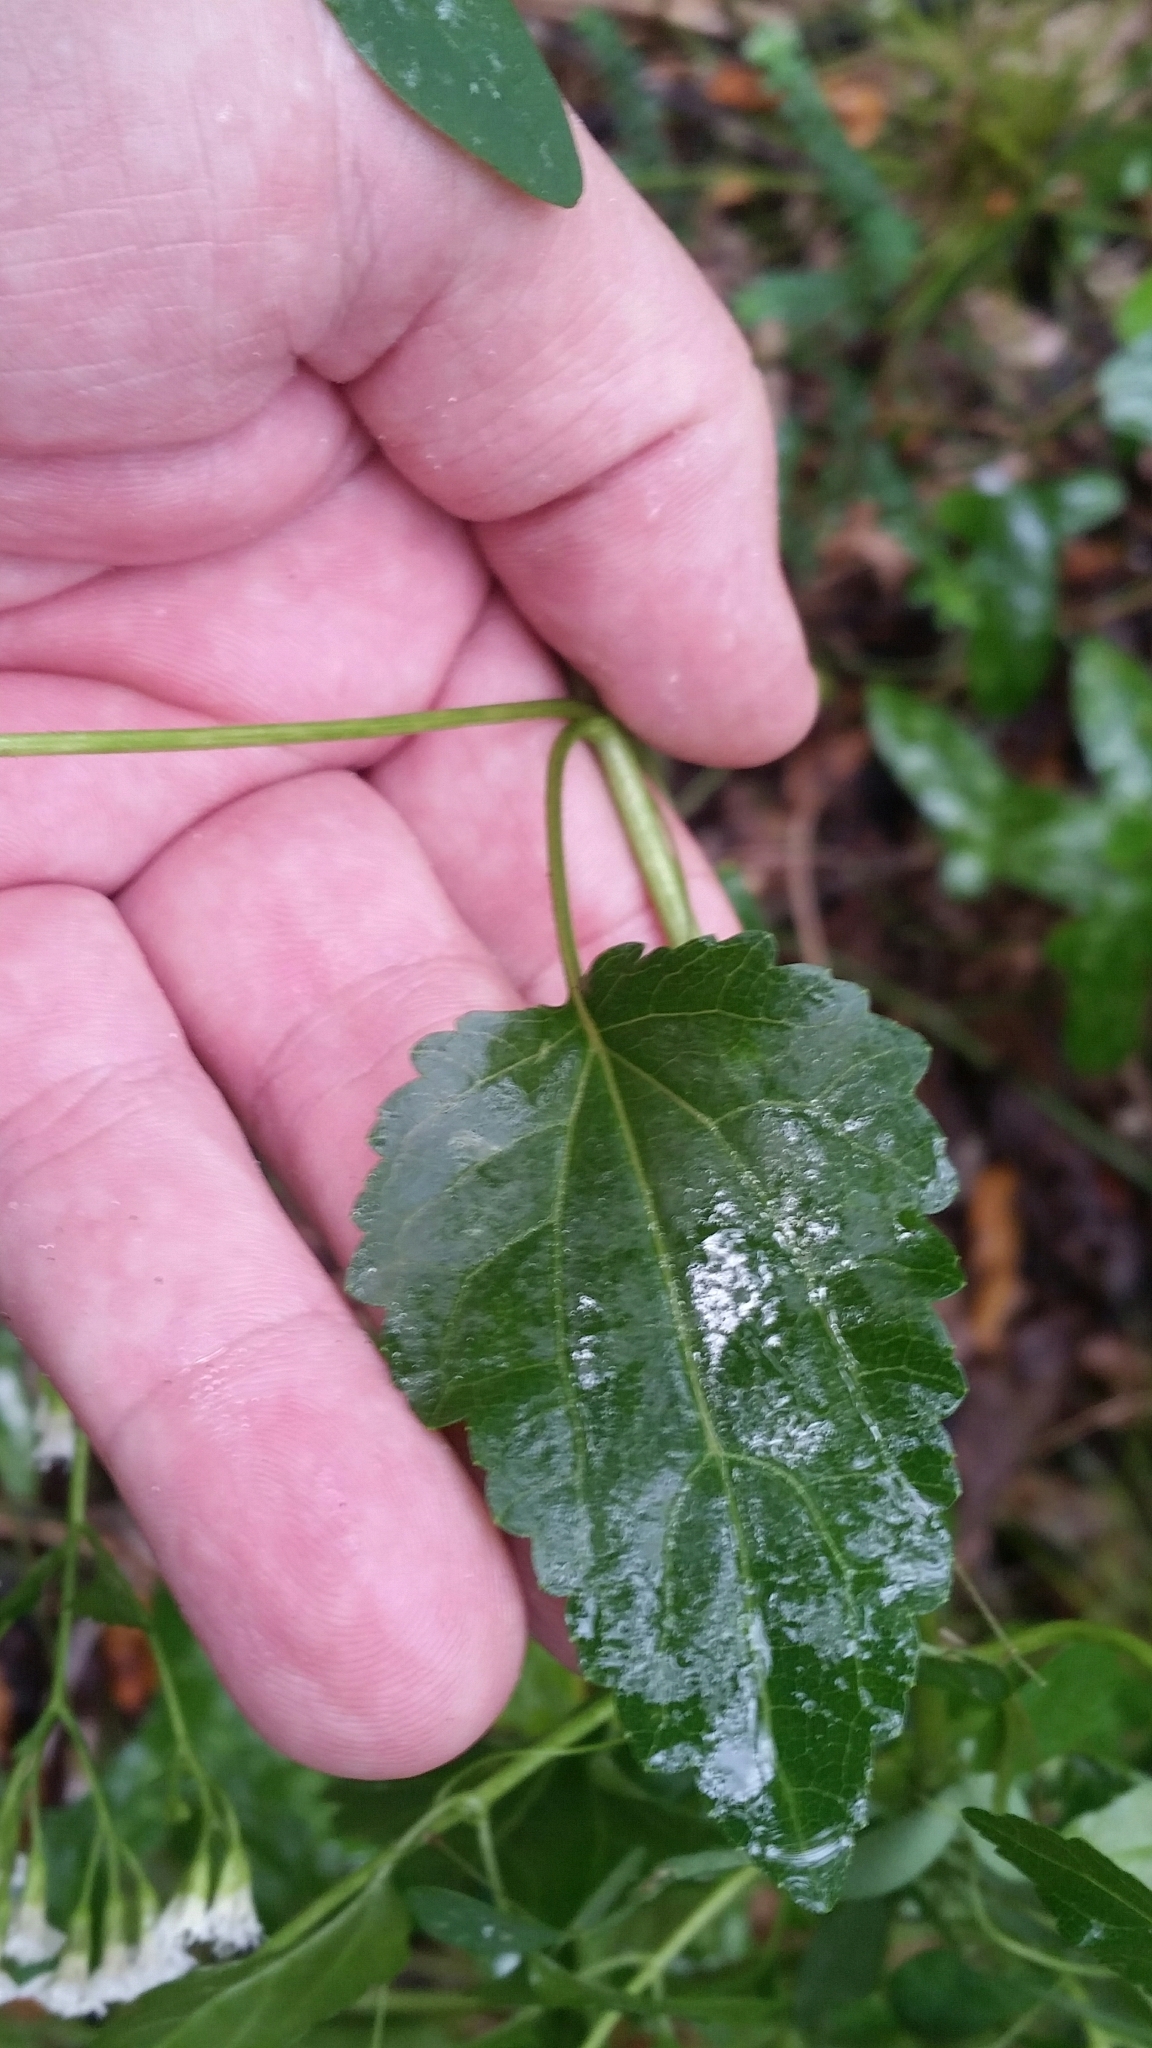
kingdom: Plantae
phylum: Tracheophyta
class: Magnoliopsida
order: Asterales
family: Asteraceae
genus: Ageratina
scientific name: Ageratina jucunda
